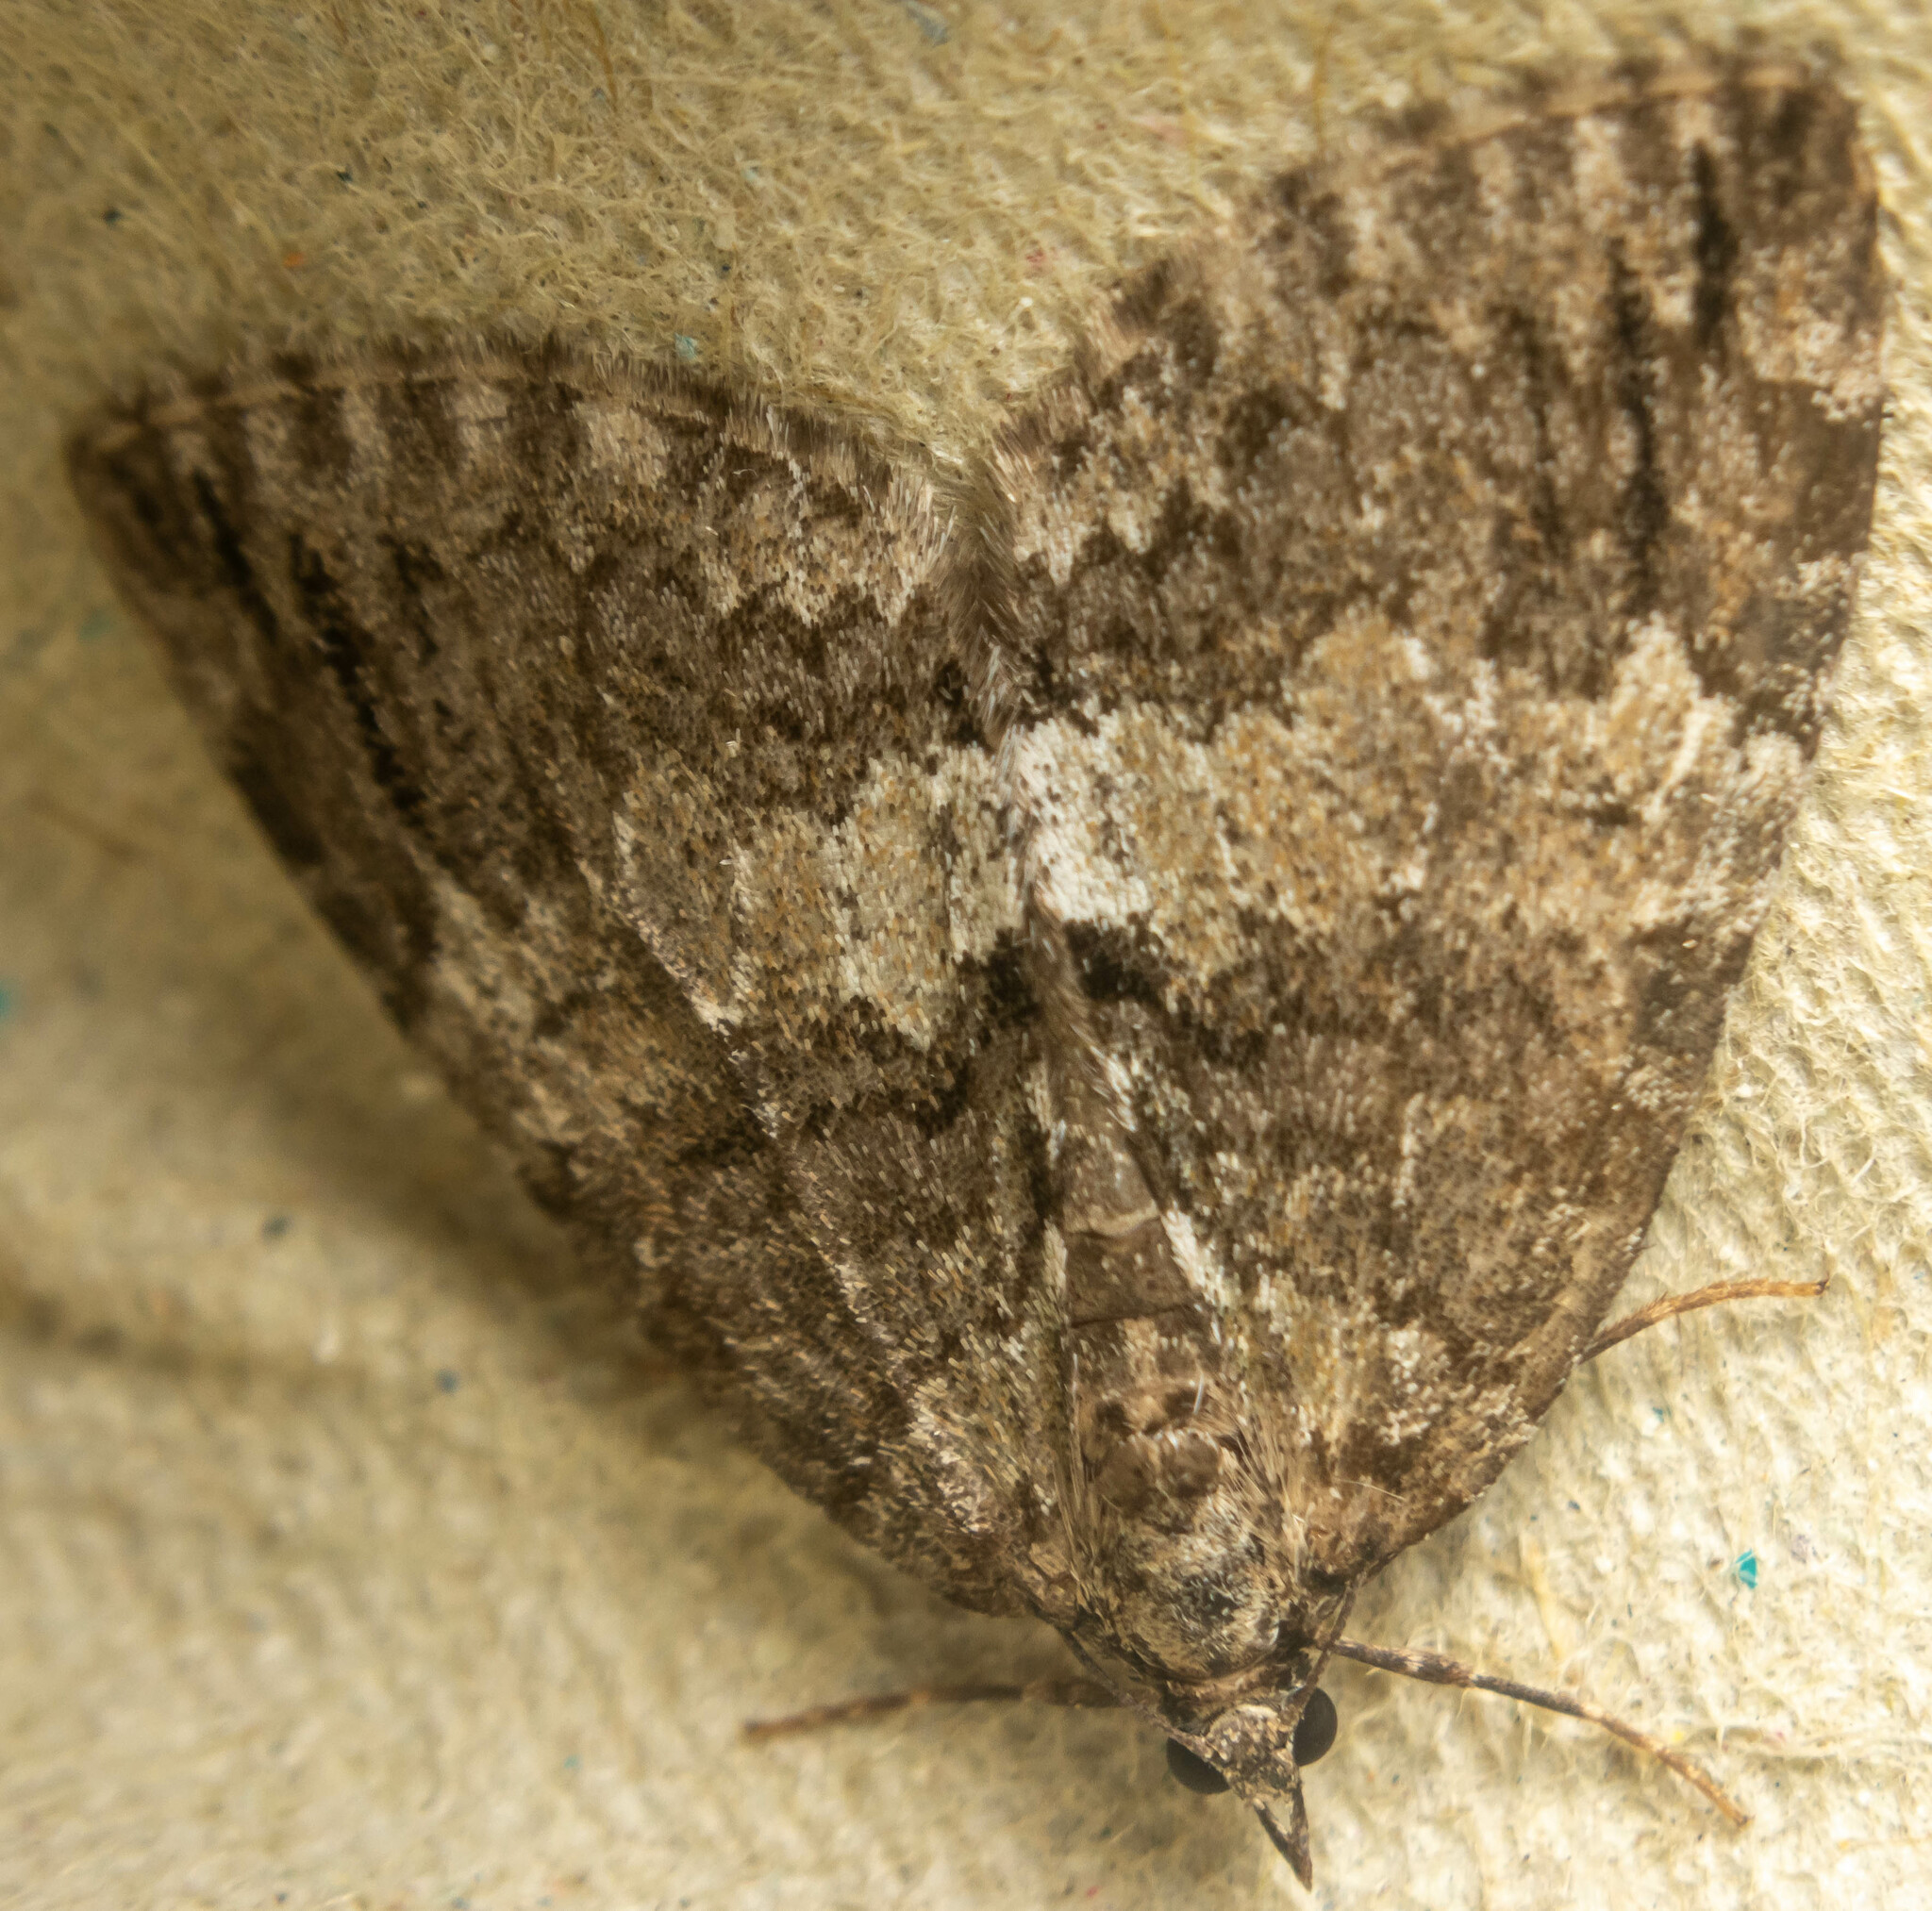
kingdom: Animalia
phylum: Arthropoda
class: Insecta
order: Lepidoptera
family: Geometridae
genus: Hydriomena
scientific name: Hydriomena impluviata
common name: May highflyer
